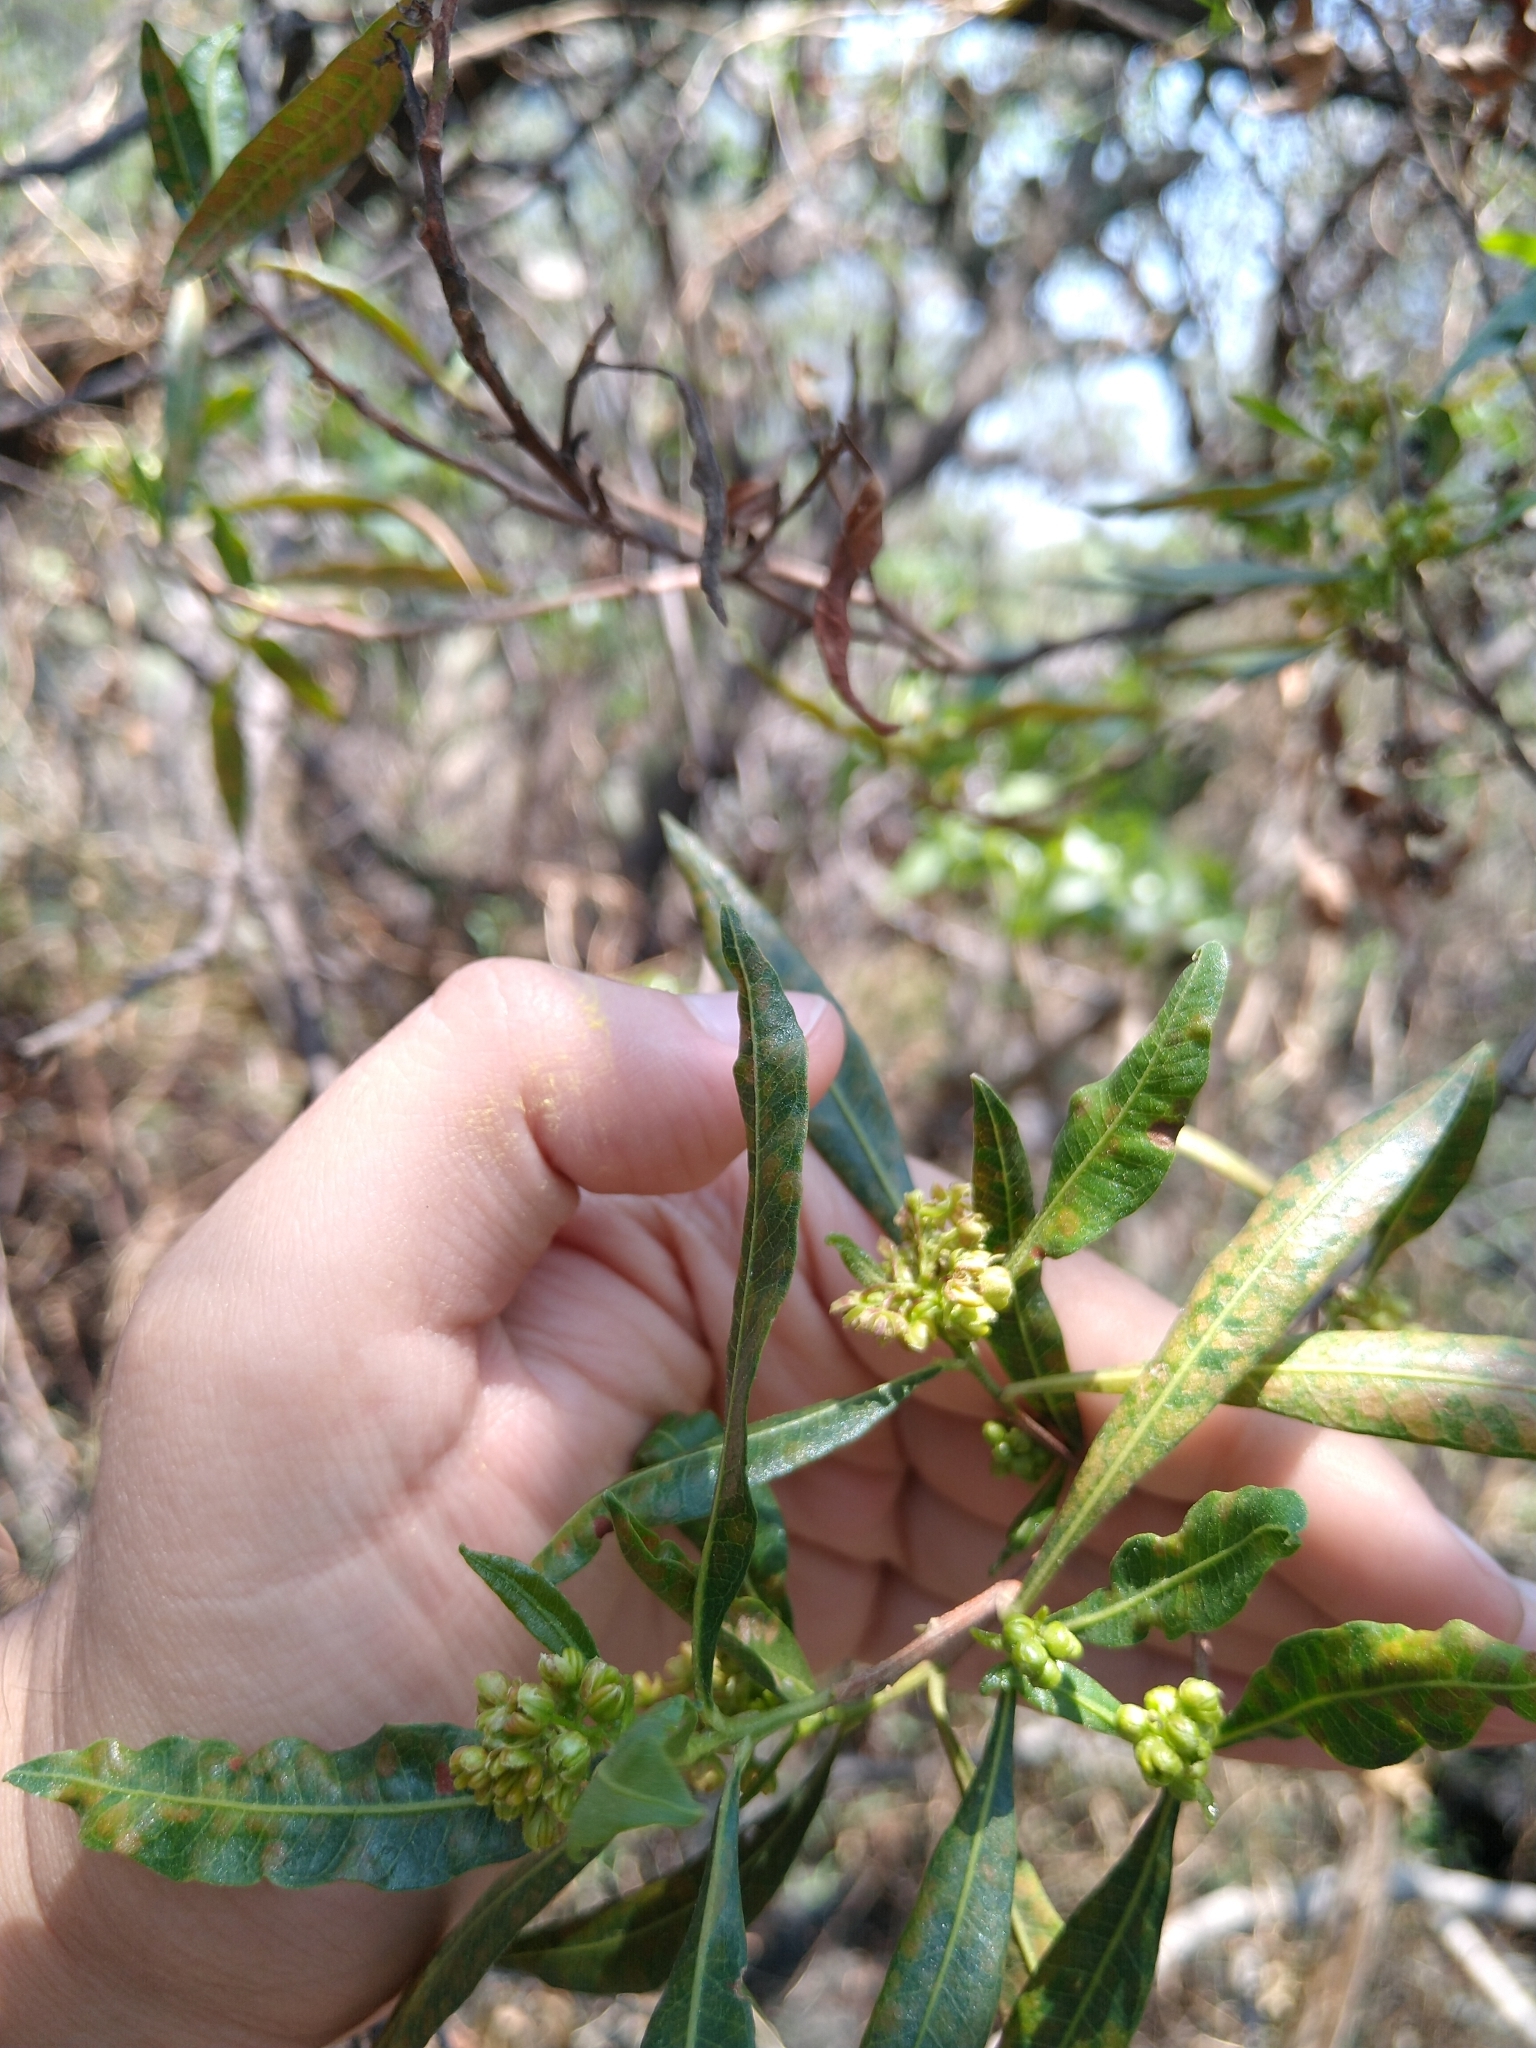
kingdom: Plantae
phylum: Tracheophyta
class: Magnoliopsida
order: Sapindales
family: Sapindaceae
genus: Dodonaea
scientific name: Dodonaea viscosa
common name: Hopbush
